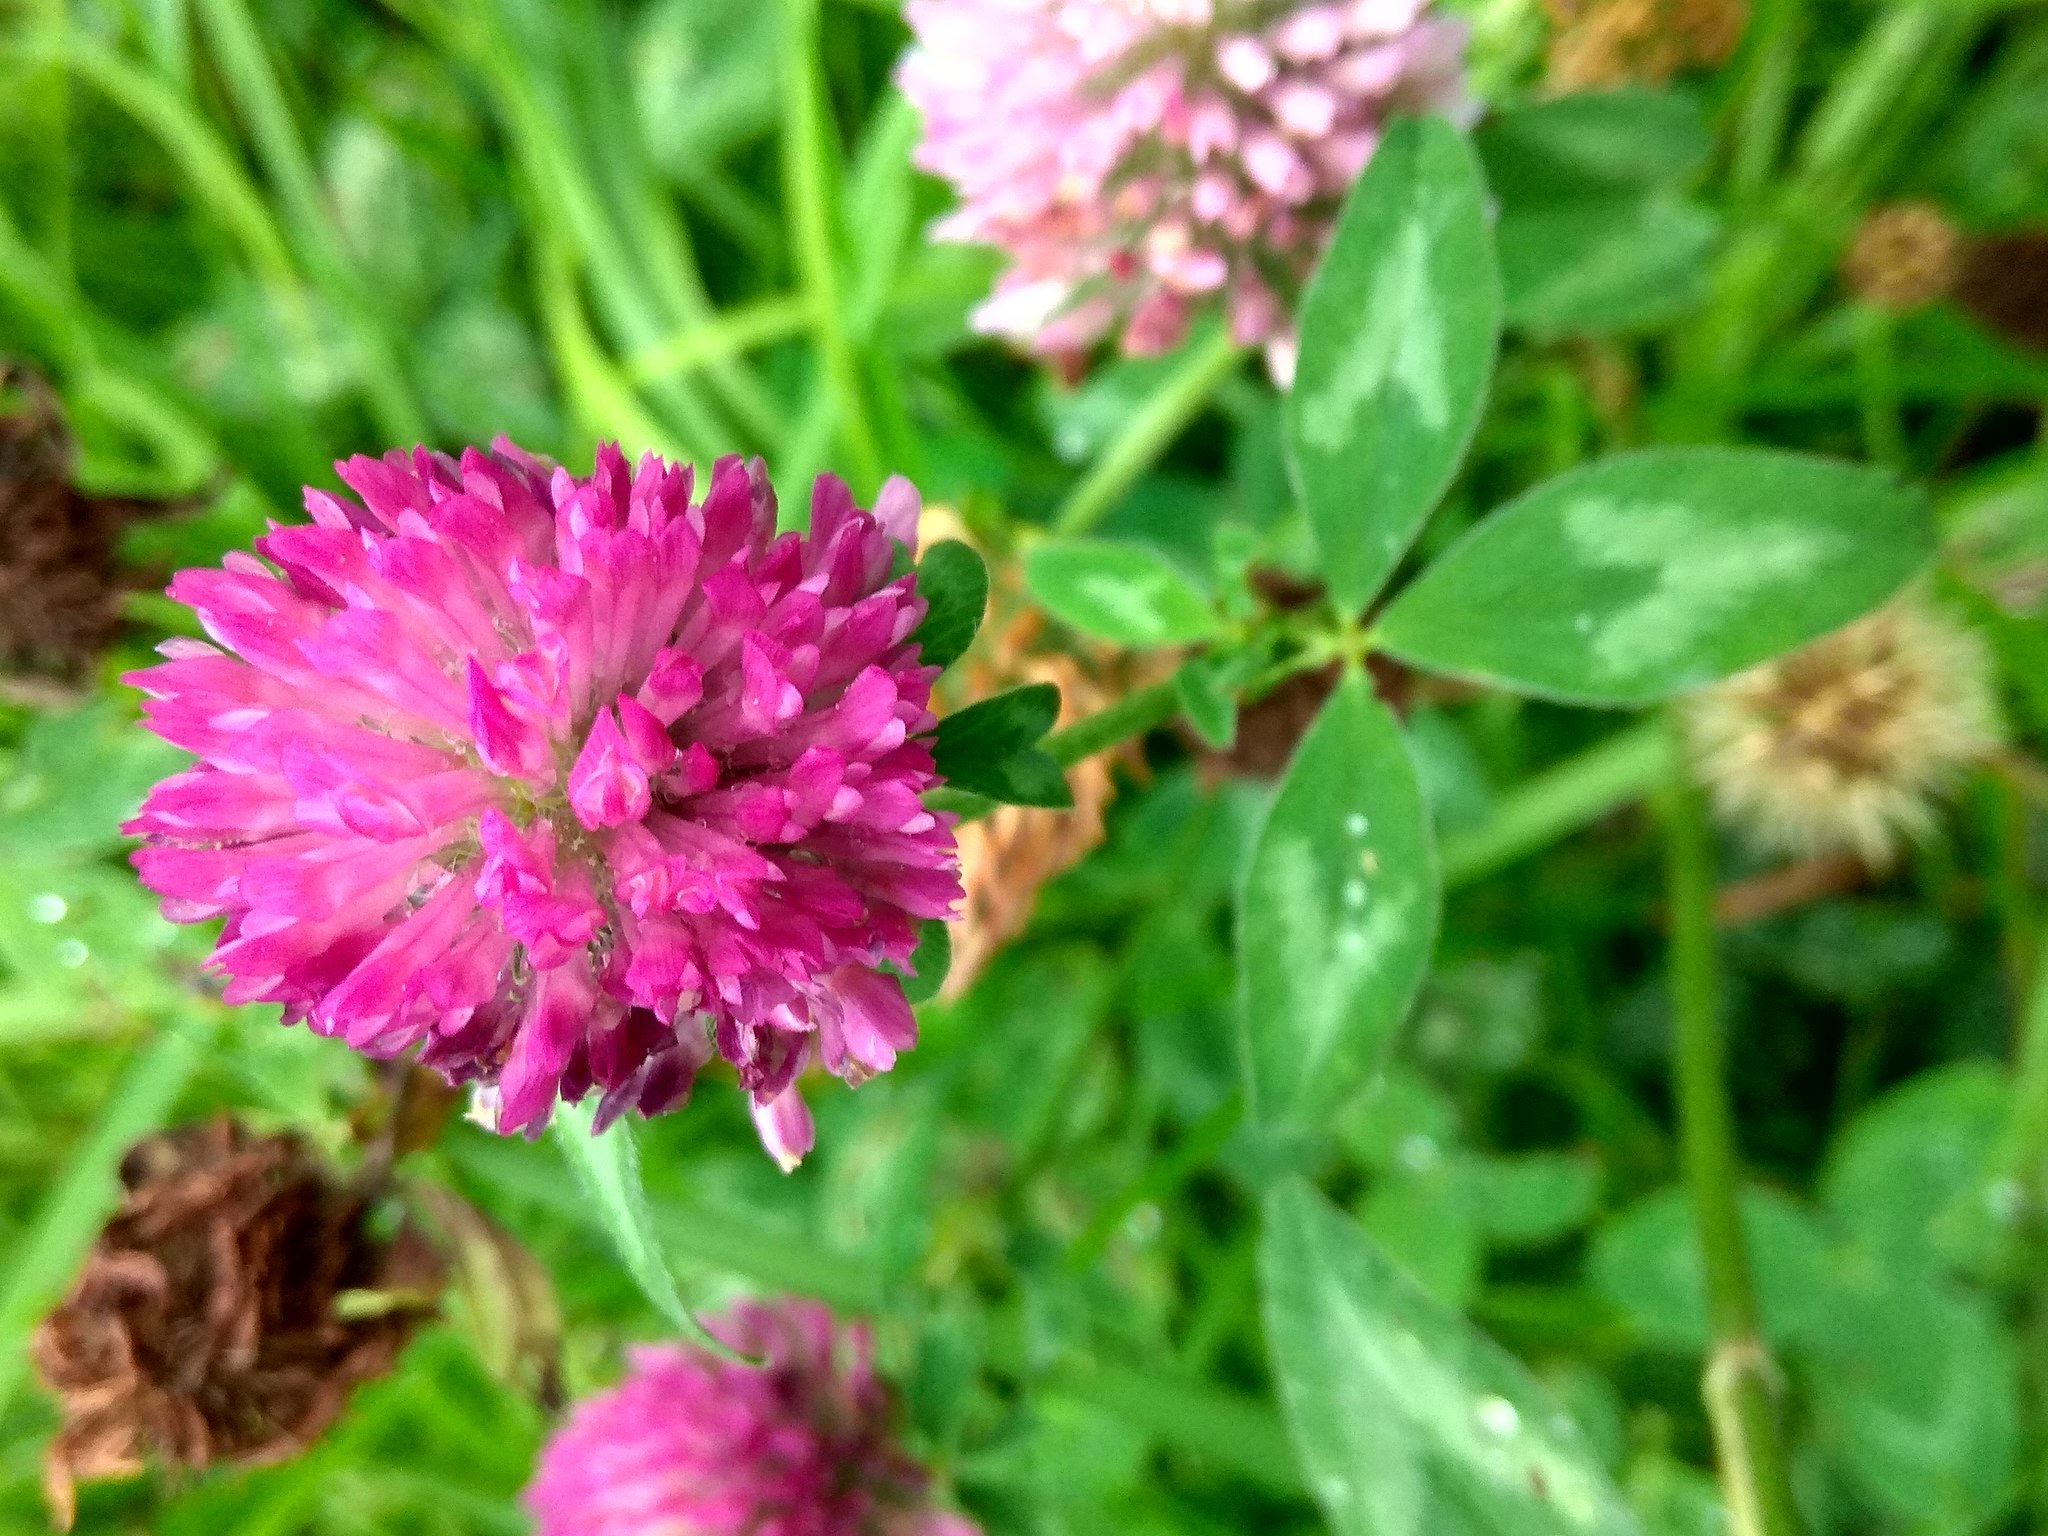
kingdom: Plantae
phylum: Tracheophyta
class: Magnoliopsida
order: Fabales
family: Fabaceae
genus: Trifolium
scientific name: Trifolium pratense
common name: Red clover
